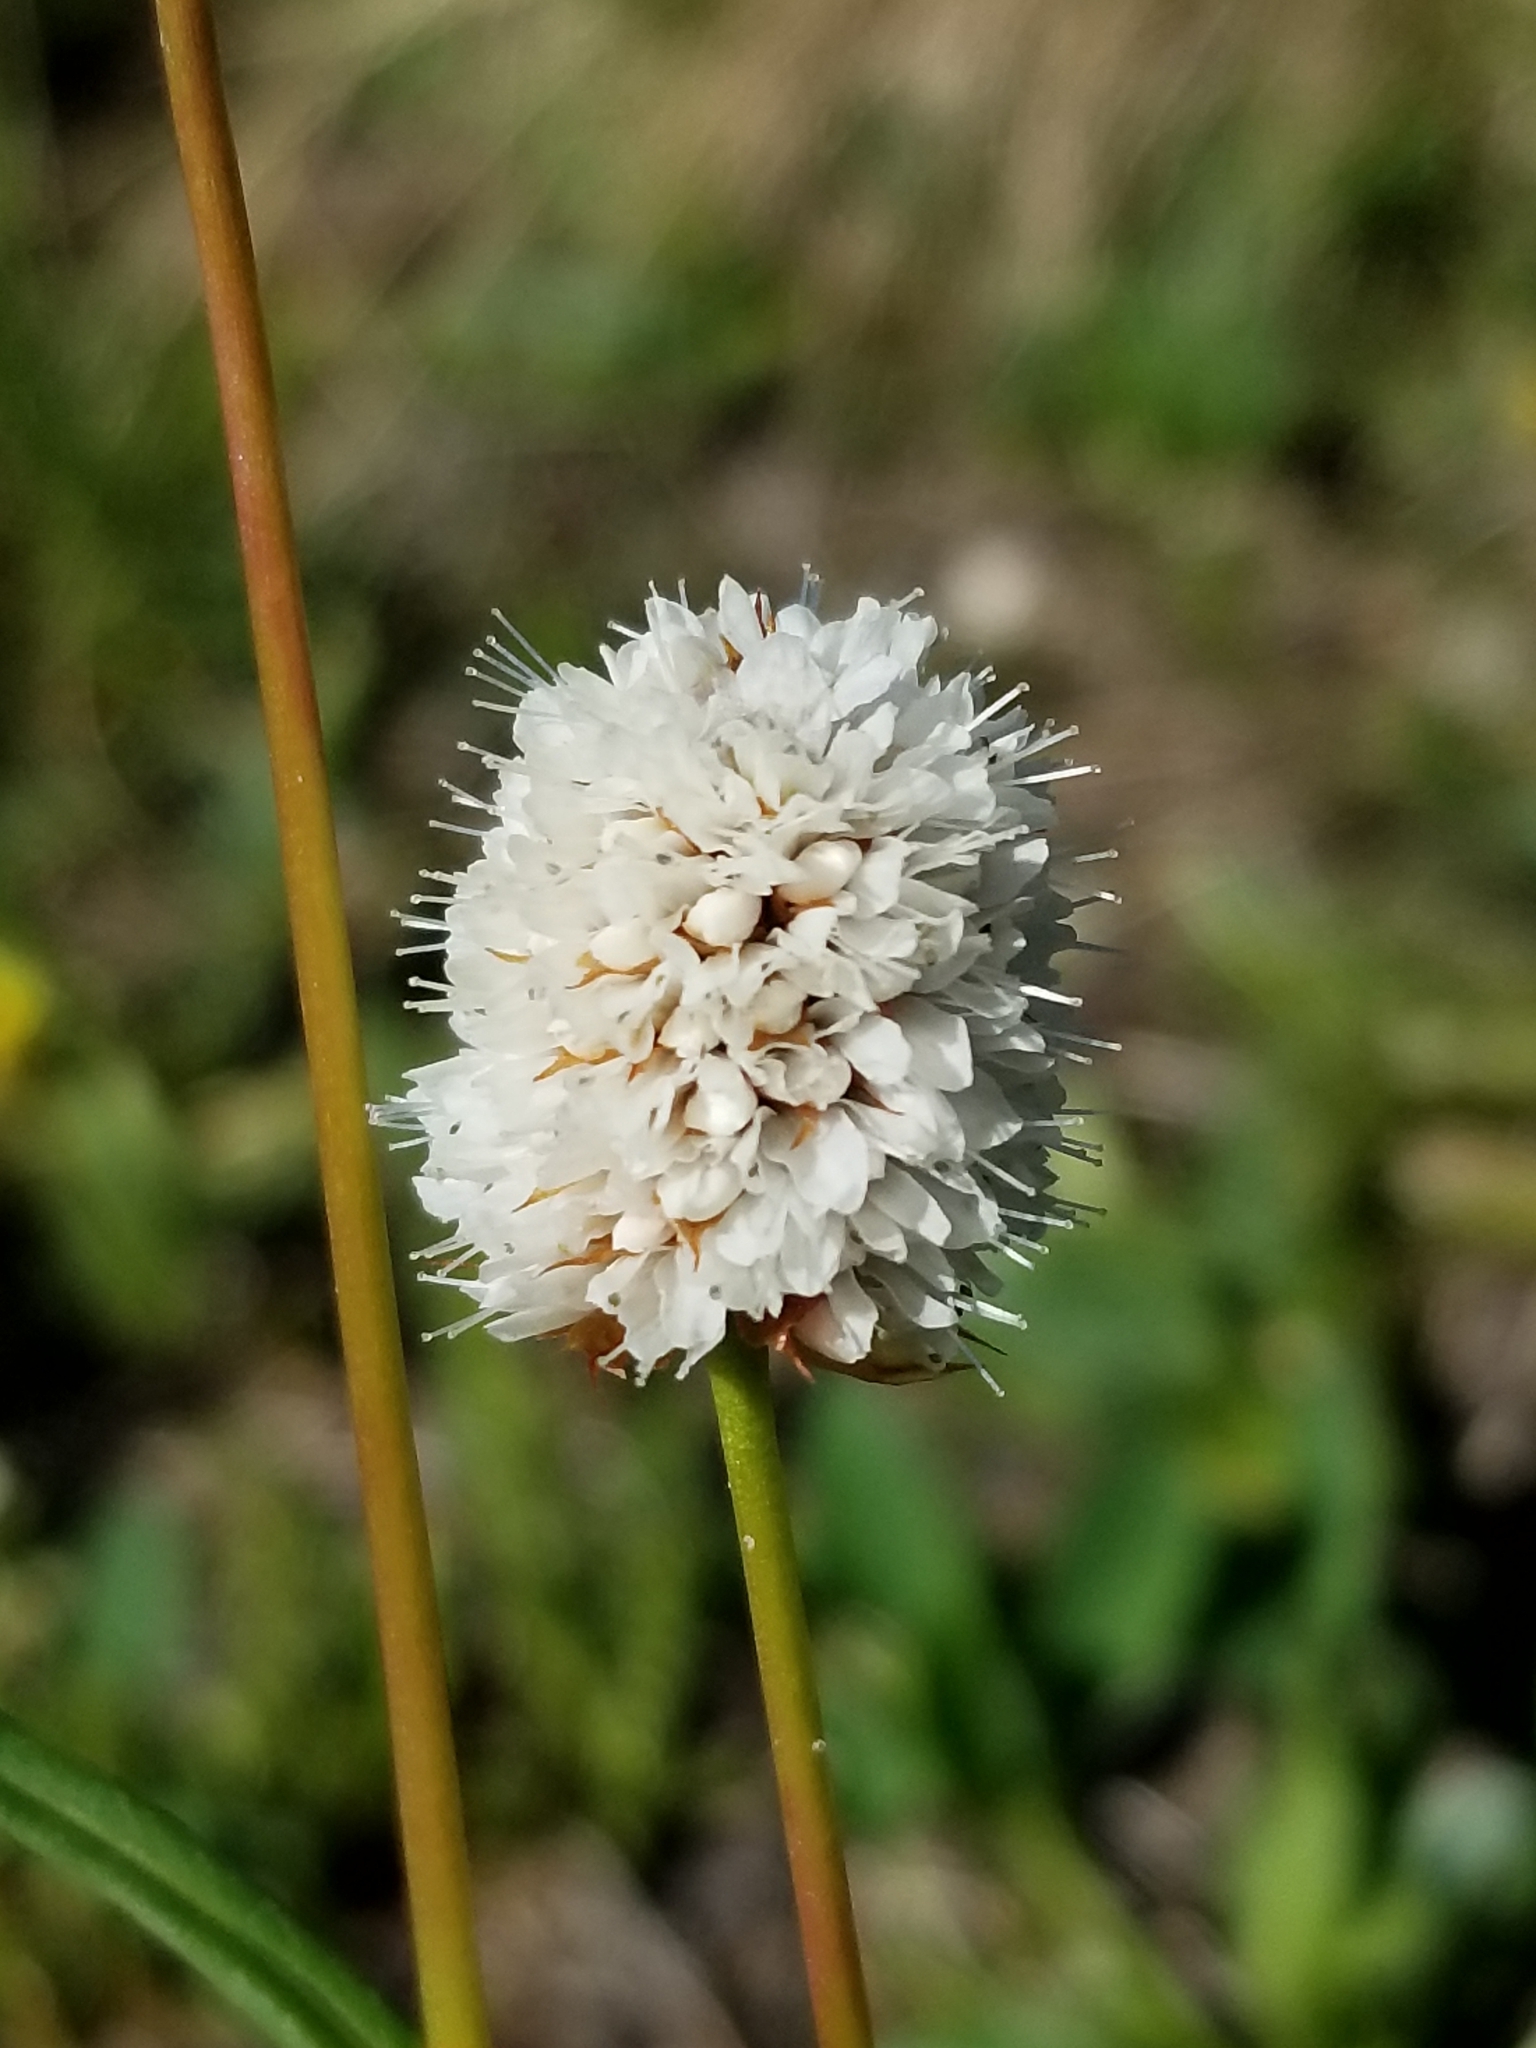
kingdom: Plantae
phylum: Tracheophyta
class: Magnoliopsida
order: Caryophyllales
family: Polygonaceae
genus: Bistorta
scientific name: Bistorta bistortoides
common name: American bistort
